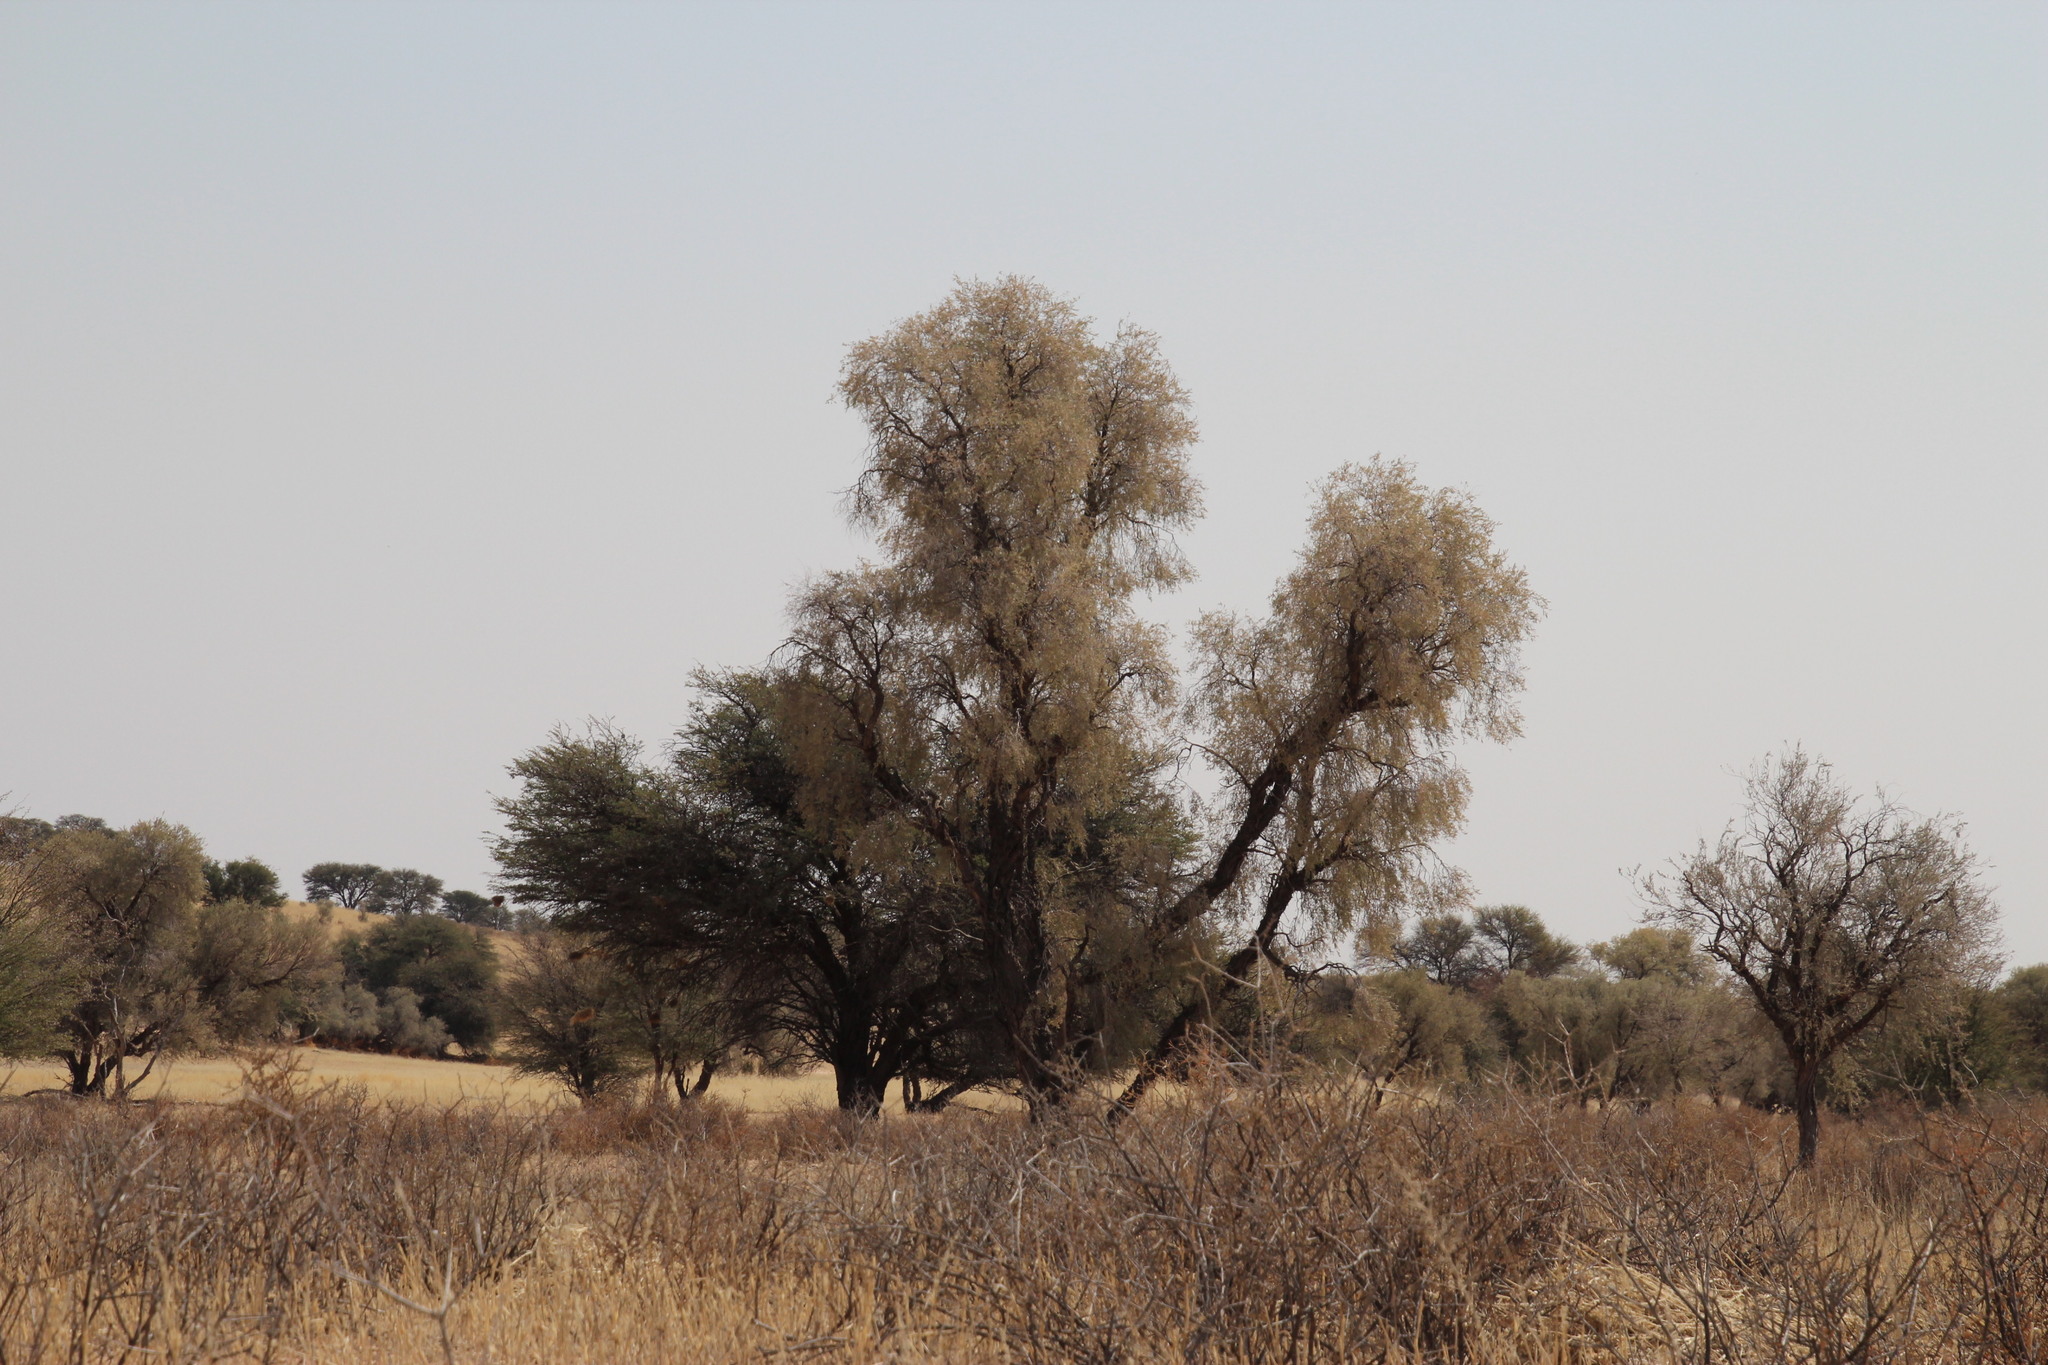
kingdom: Plantae
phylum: Tracheophyta
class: Magnoliopsida
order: Fabales
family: Fabaceae
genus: Vachellia
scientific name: Vachellia haematoxylon
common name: Grey camel thorn
